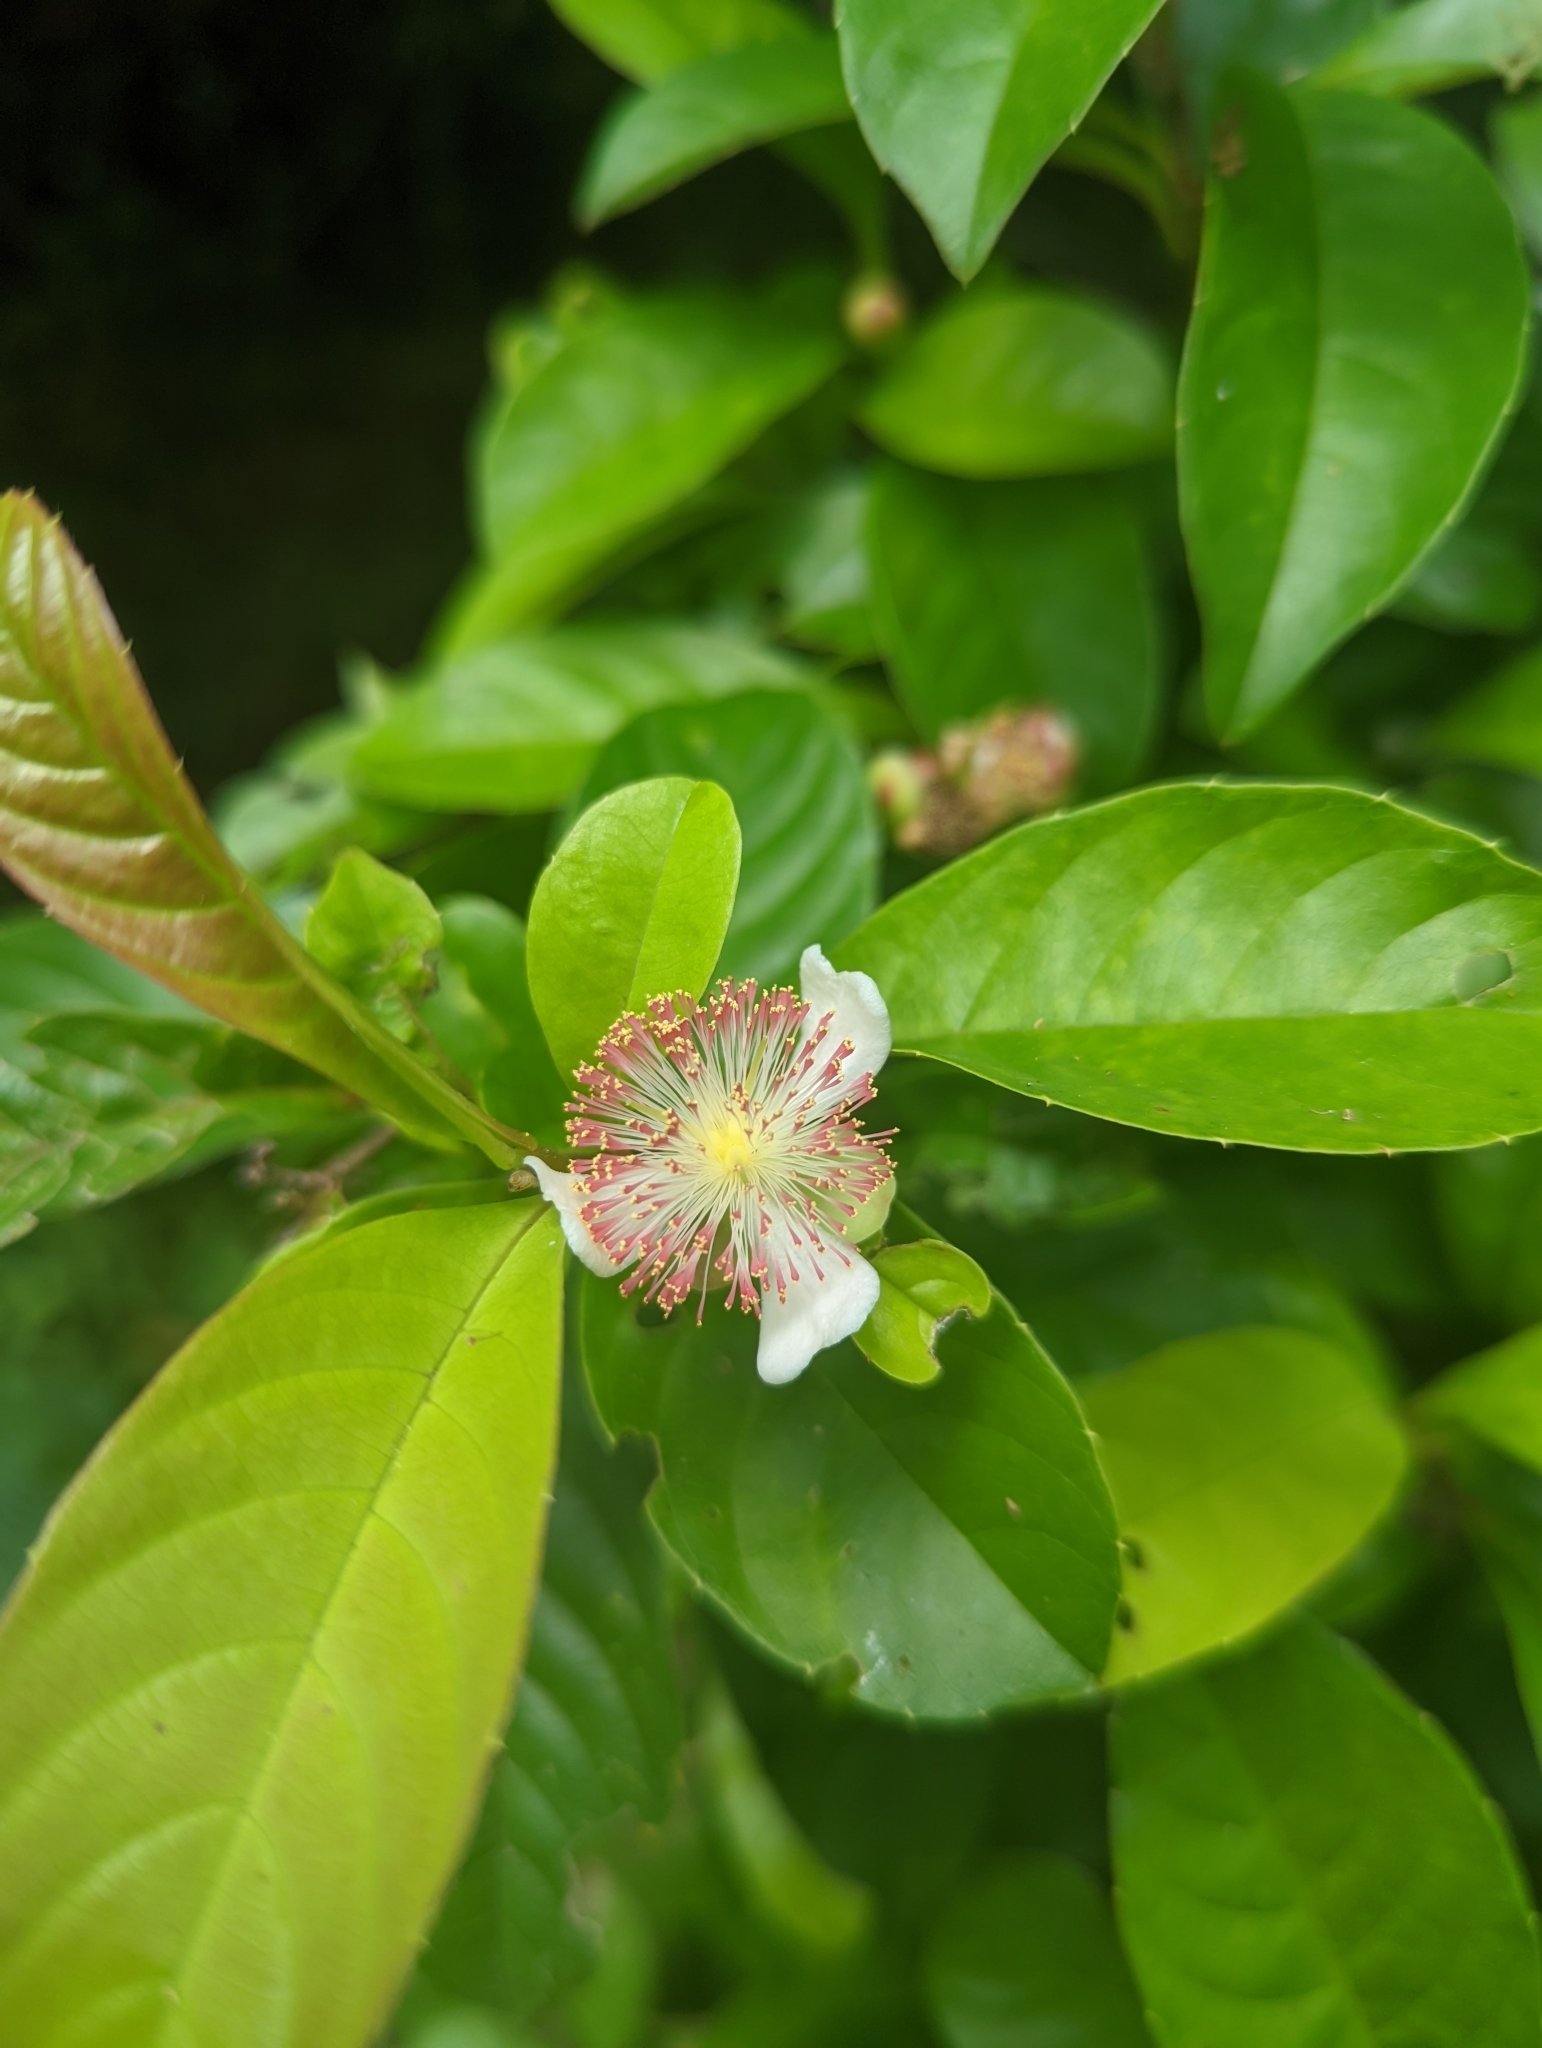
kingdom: Plantae
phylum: Tracheophyta
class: Magnoliopsida
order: Dilleniales
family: Dilleniaceae
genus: Tetracera
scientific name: Tetracera indica
